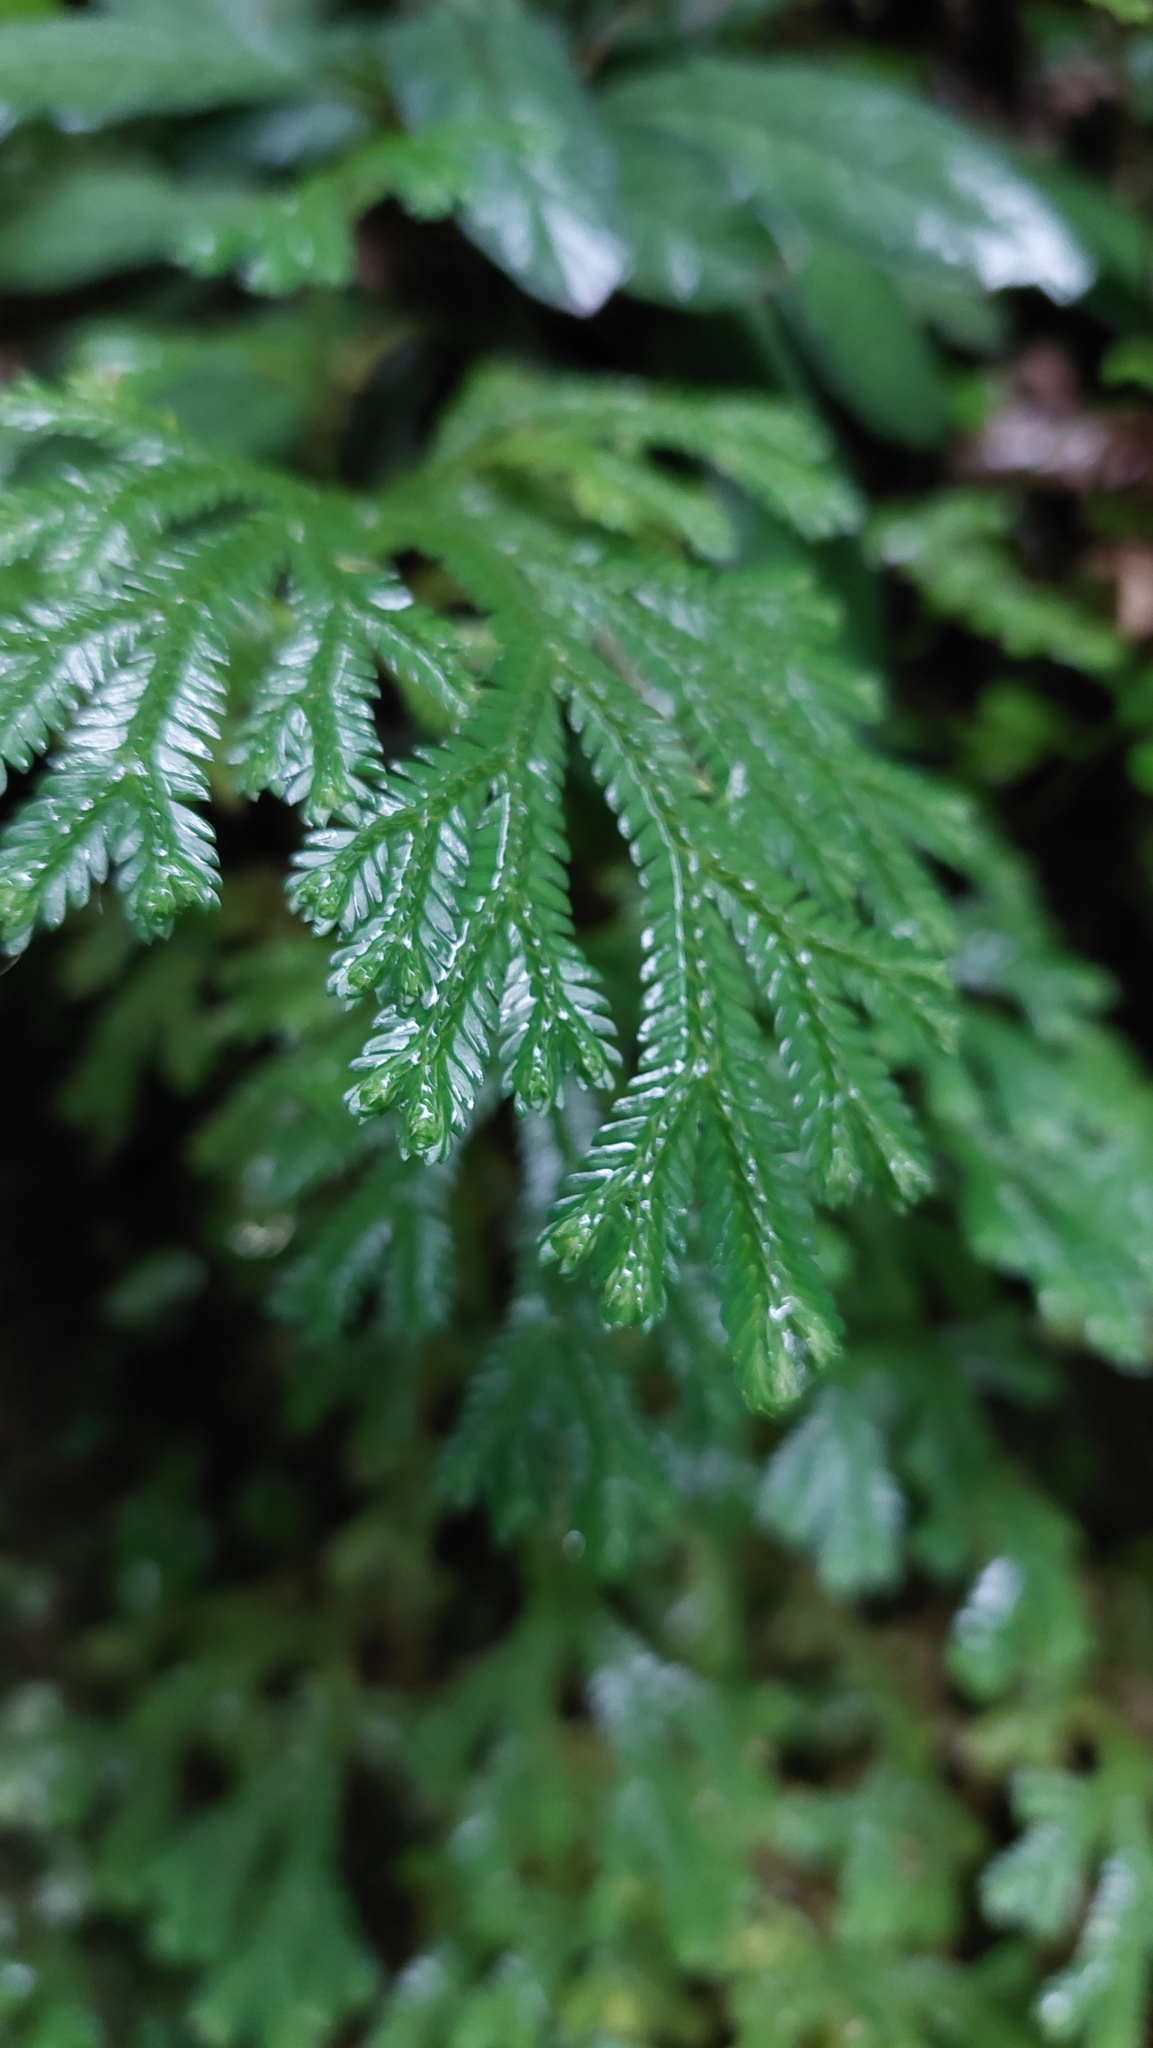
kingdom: Plantae
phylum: Tracheophyta
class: Lycopodiopsida
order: Selaginellales
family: Selaginellaceae
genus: Selaginella
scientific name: Selaginella doederleinii
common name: Greater selaginella
